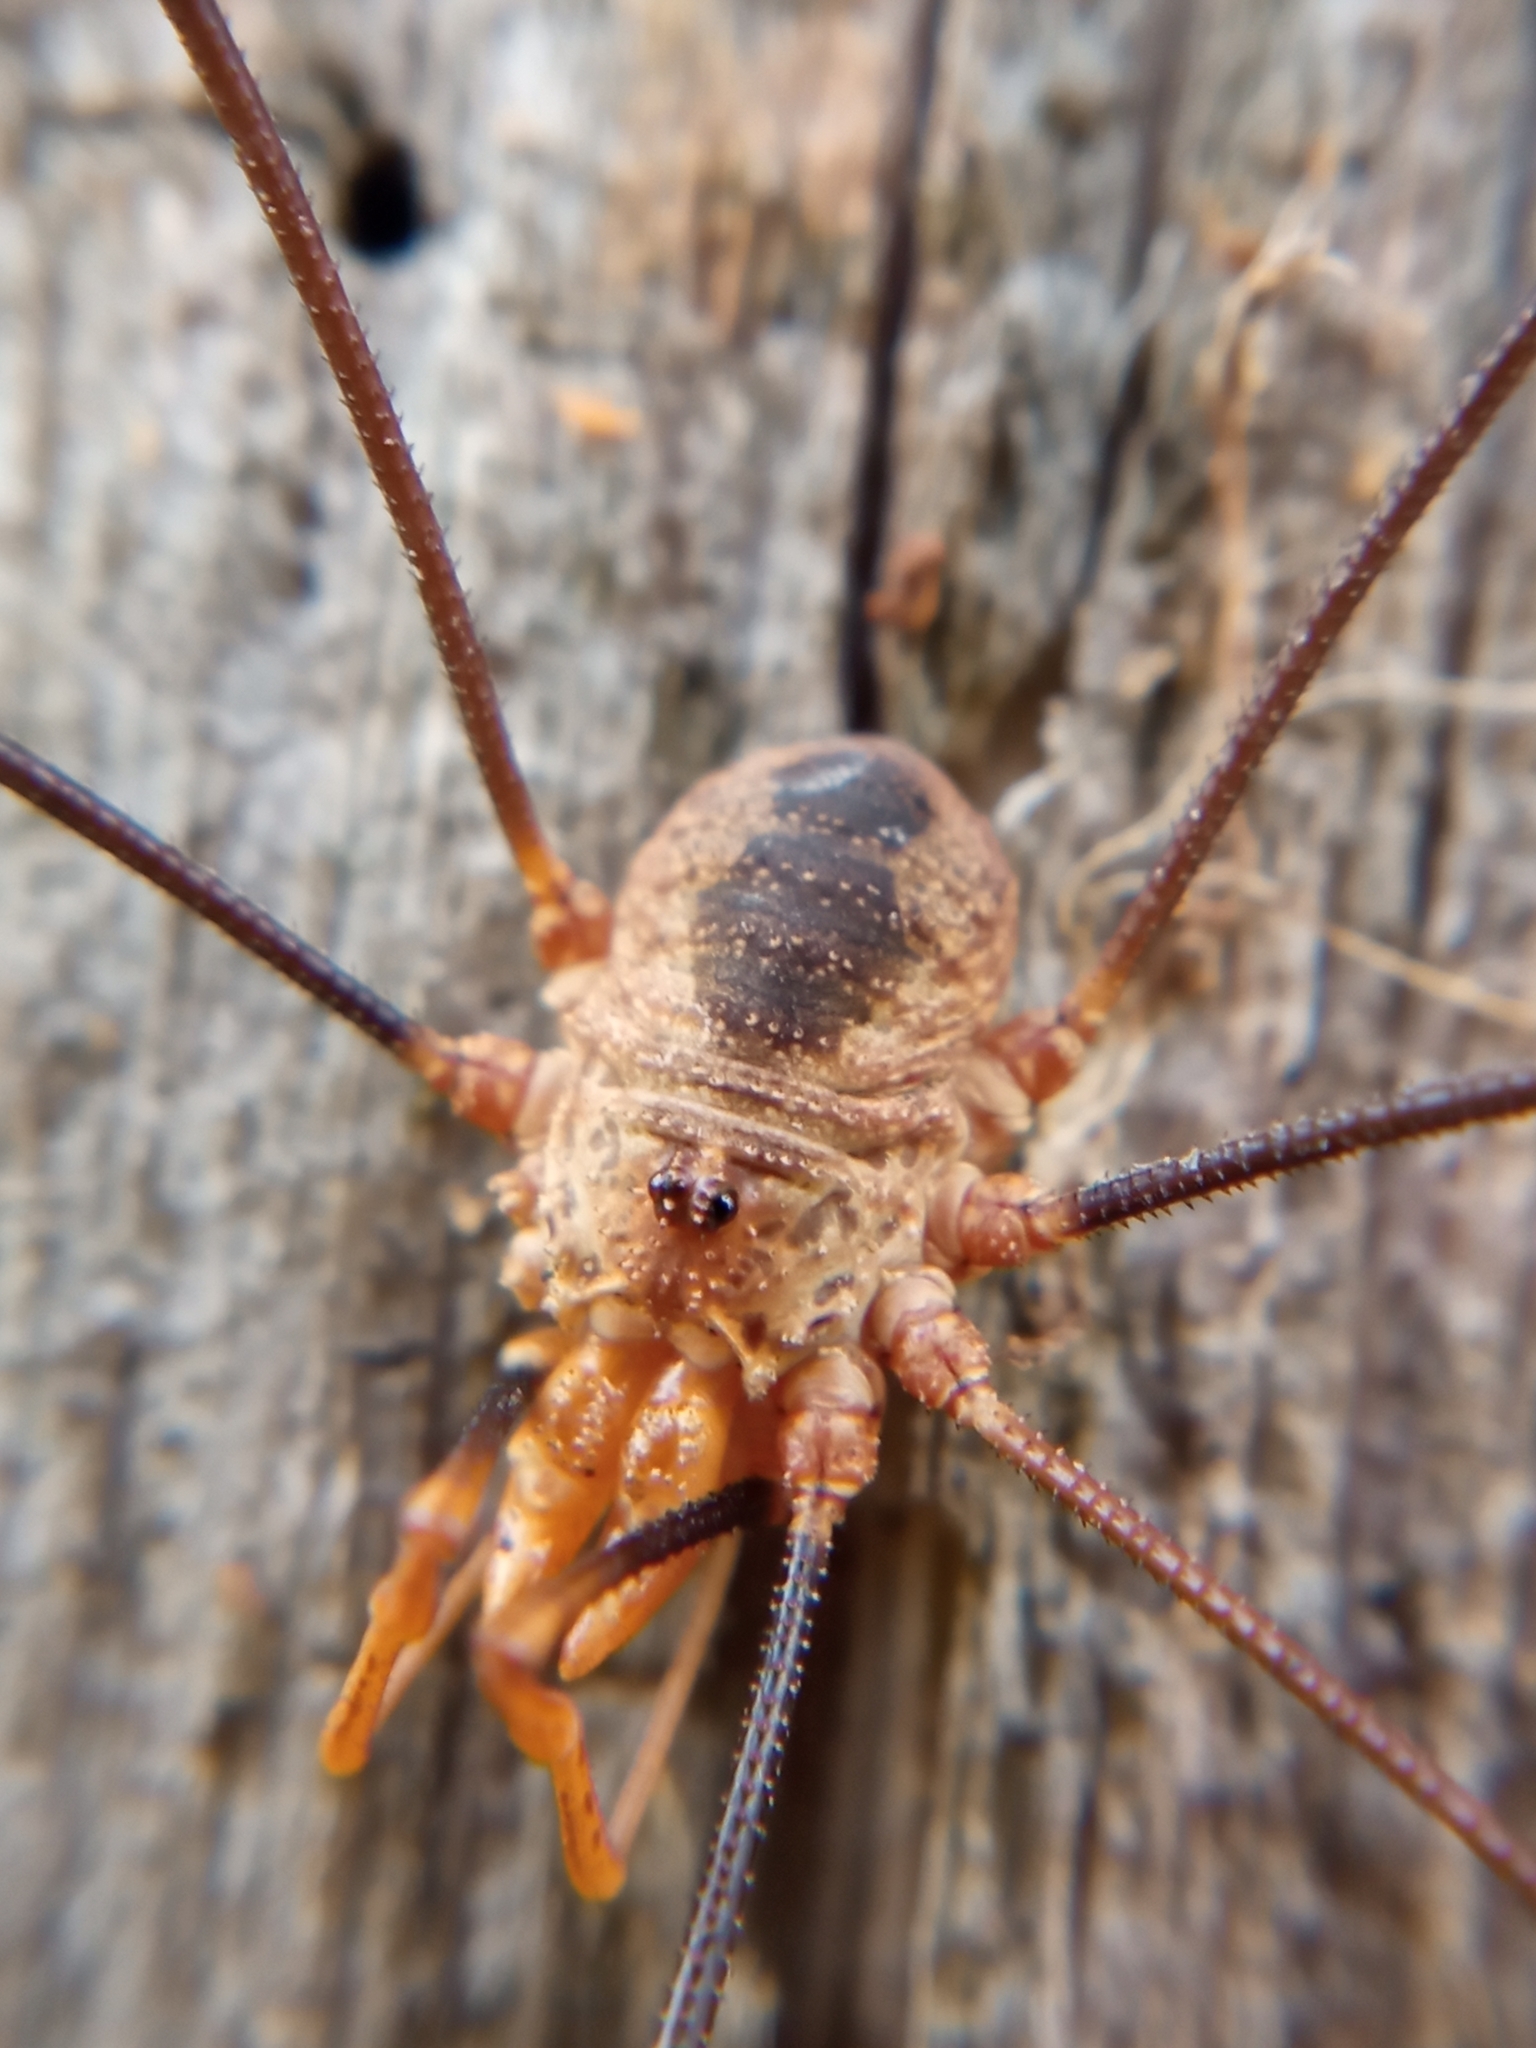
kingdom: Animalia
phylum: Arthropoda
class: Arachnida
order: Opiliones
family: Phalangiidae
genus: Phalangium
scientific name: Phalangium opilio
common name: Daddy longleg
